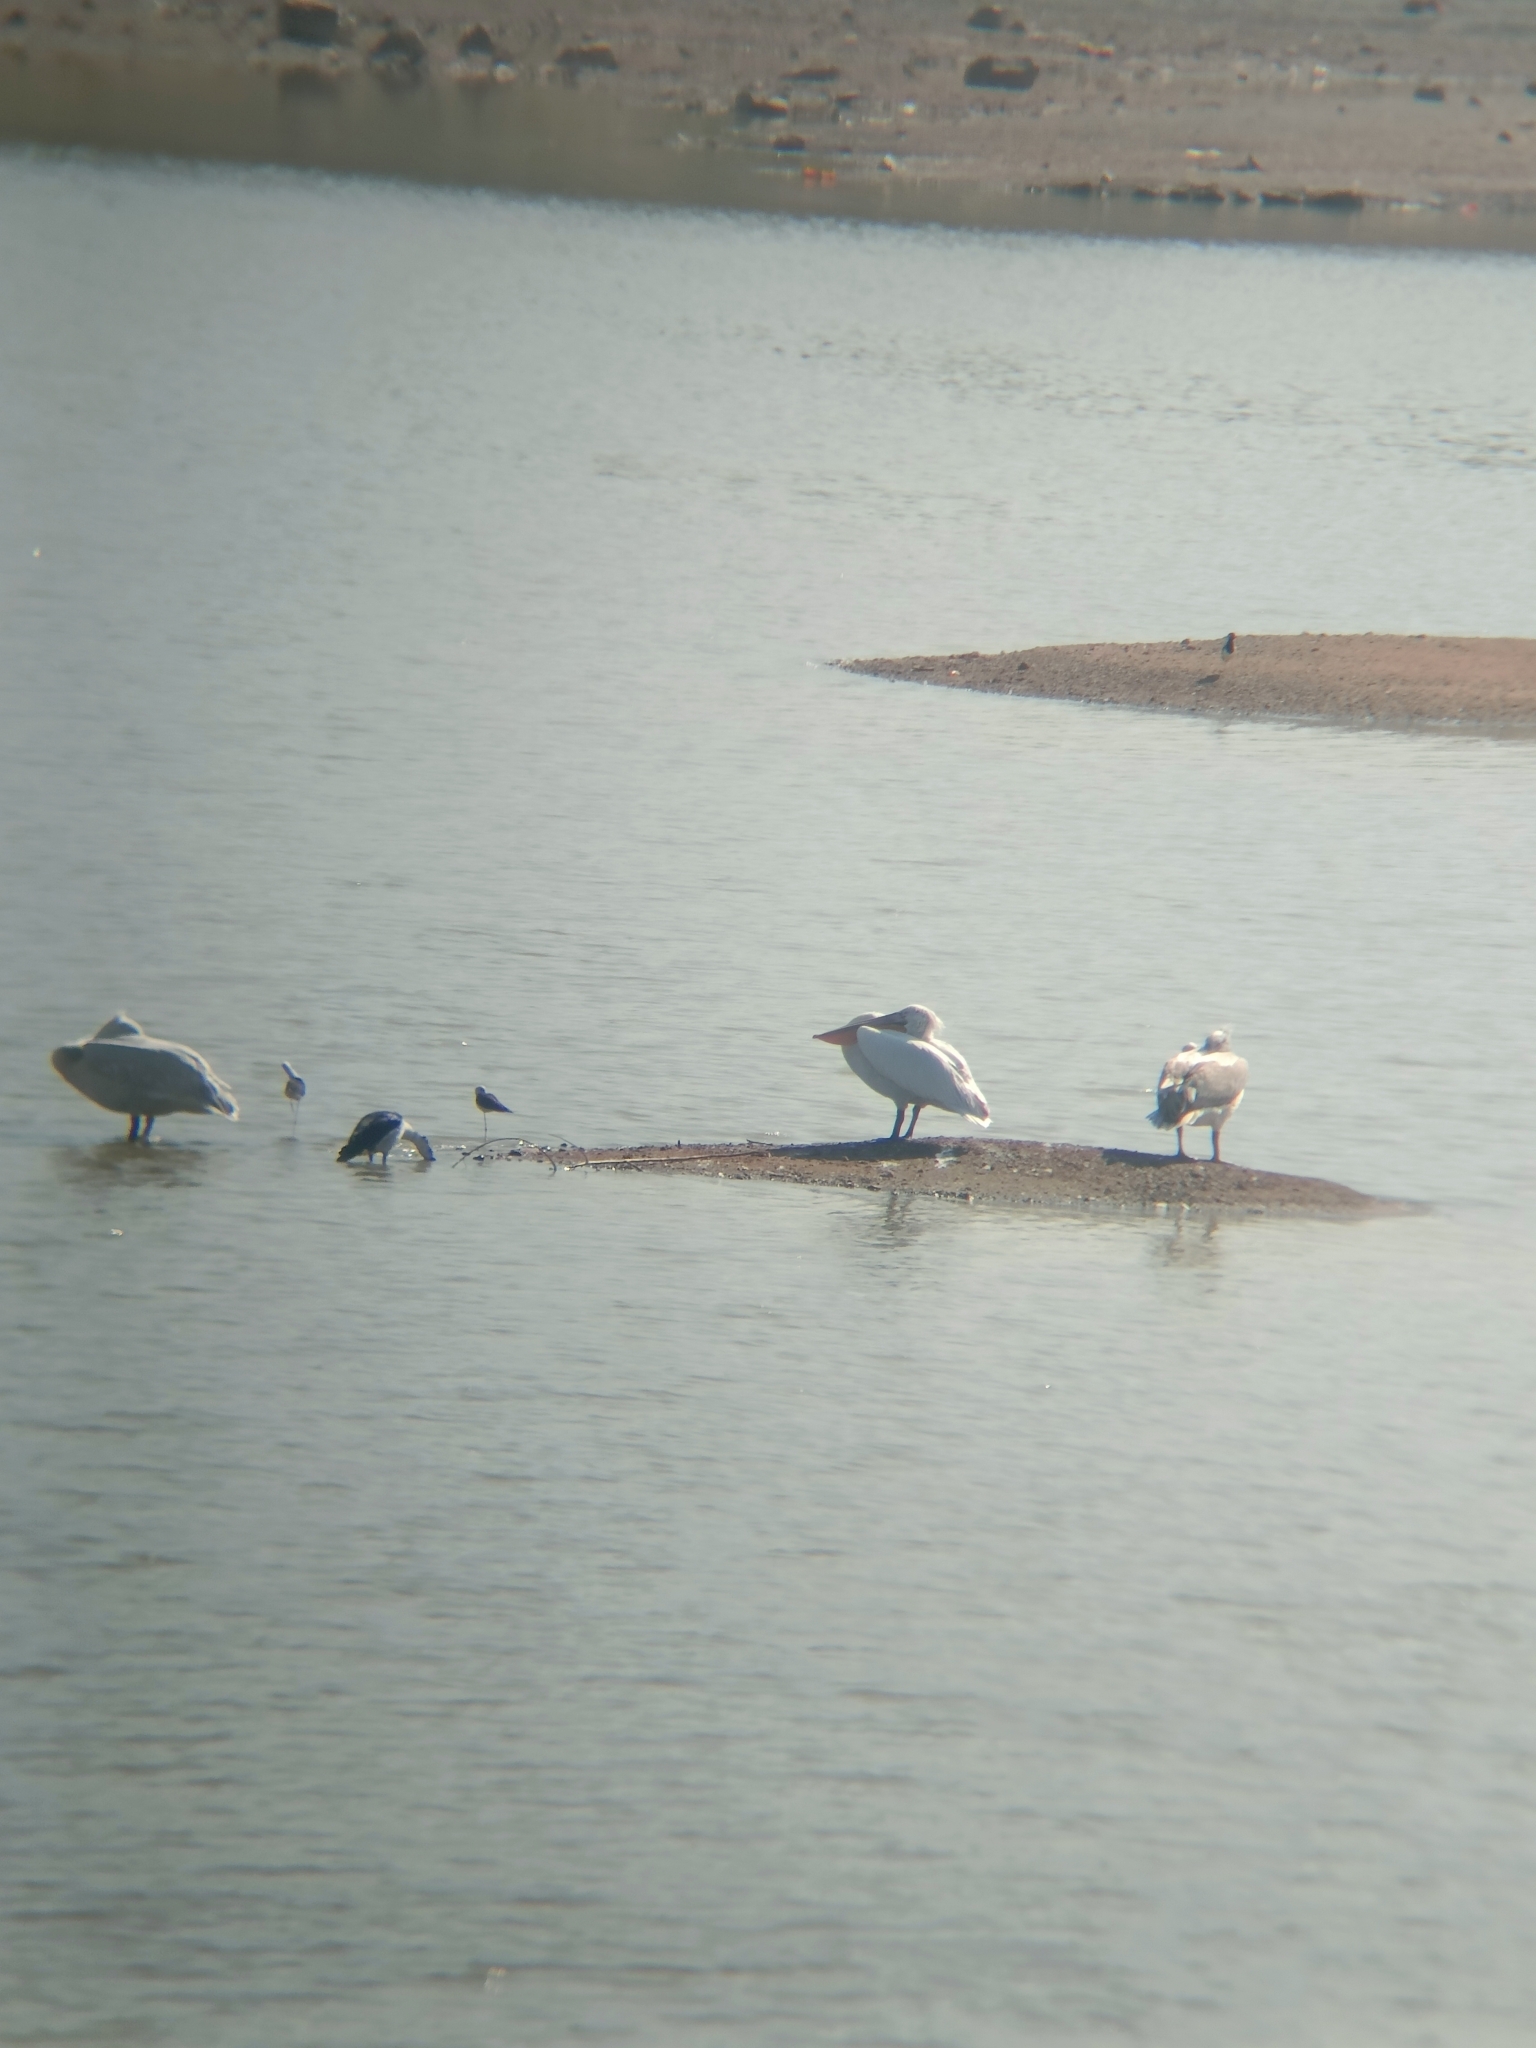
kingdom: Animalia
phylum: Chordata
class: Aves
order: Pelecaniformes
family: Pelecanidae
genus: Pelecanus
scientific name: Pelecanus crispus
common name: Dalmatian pelican
